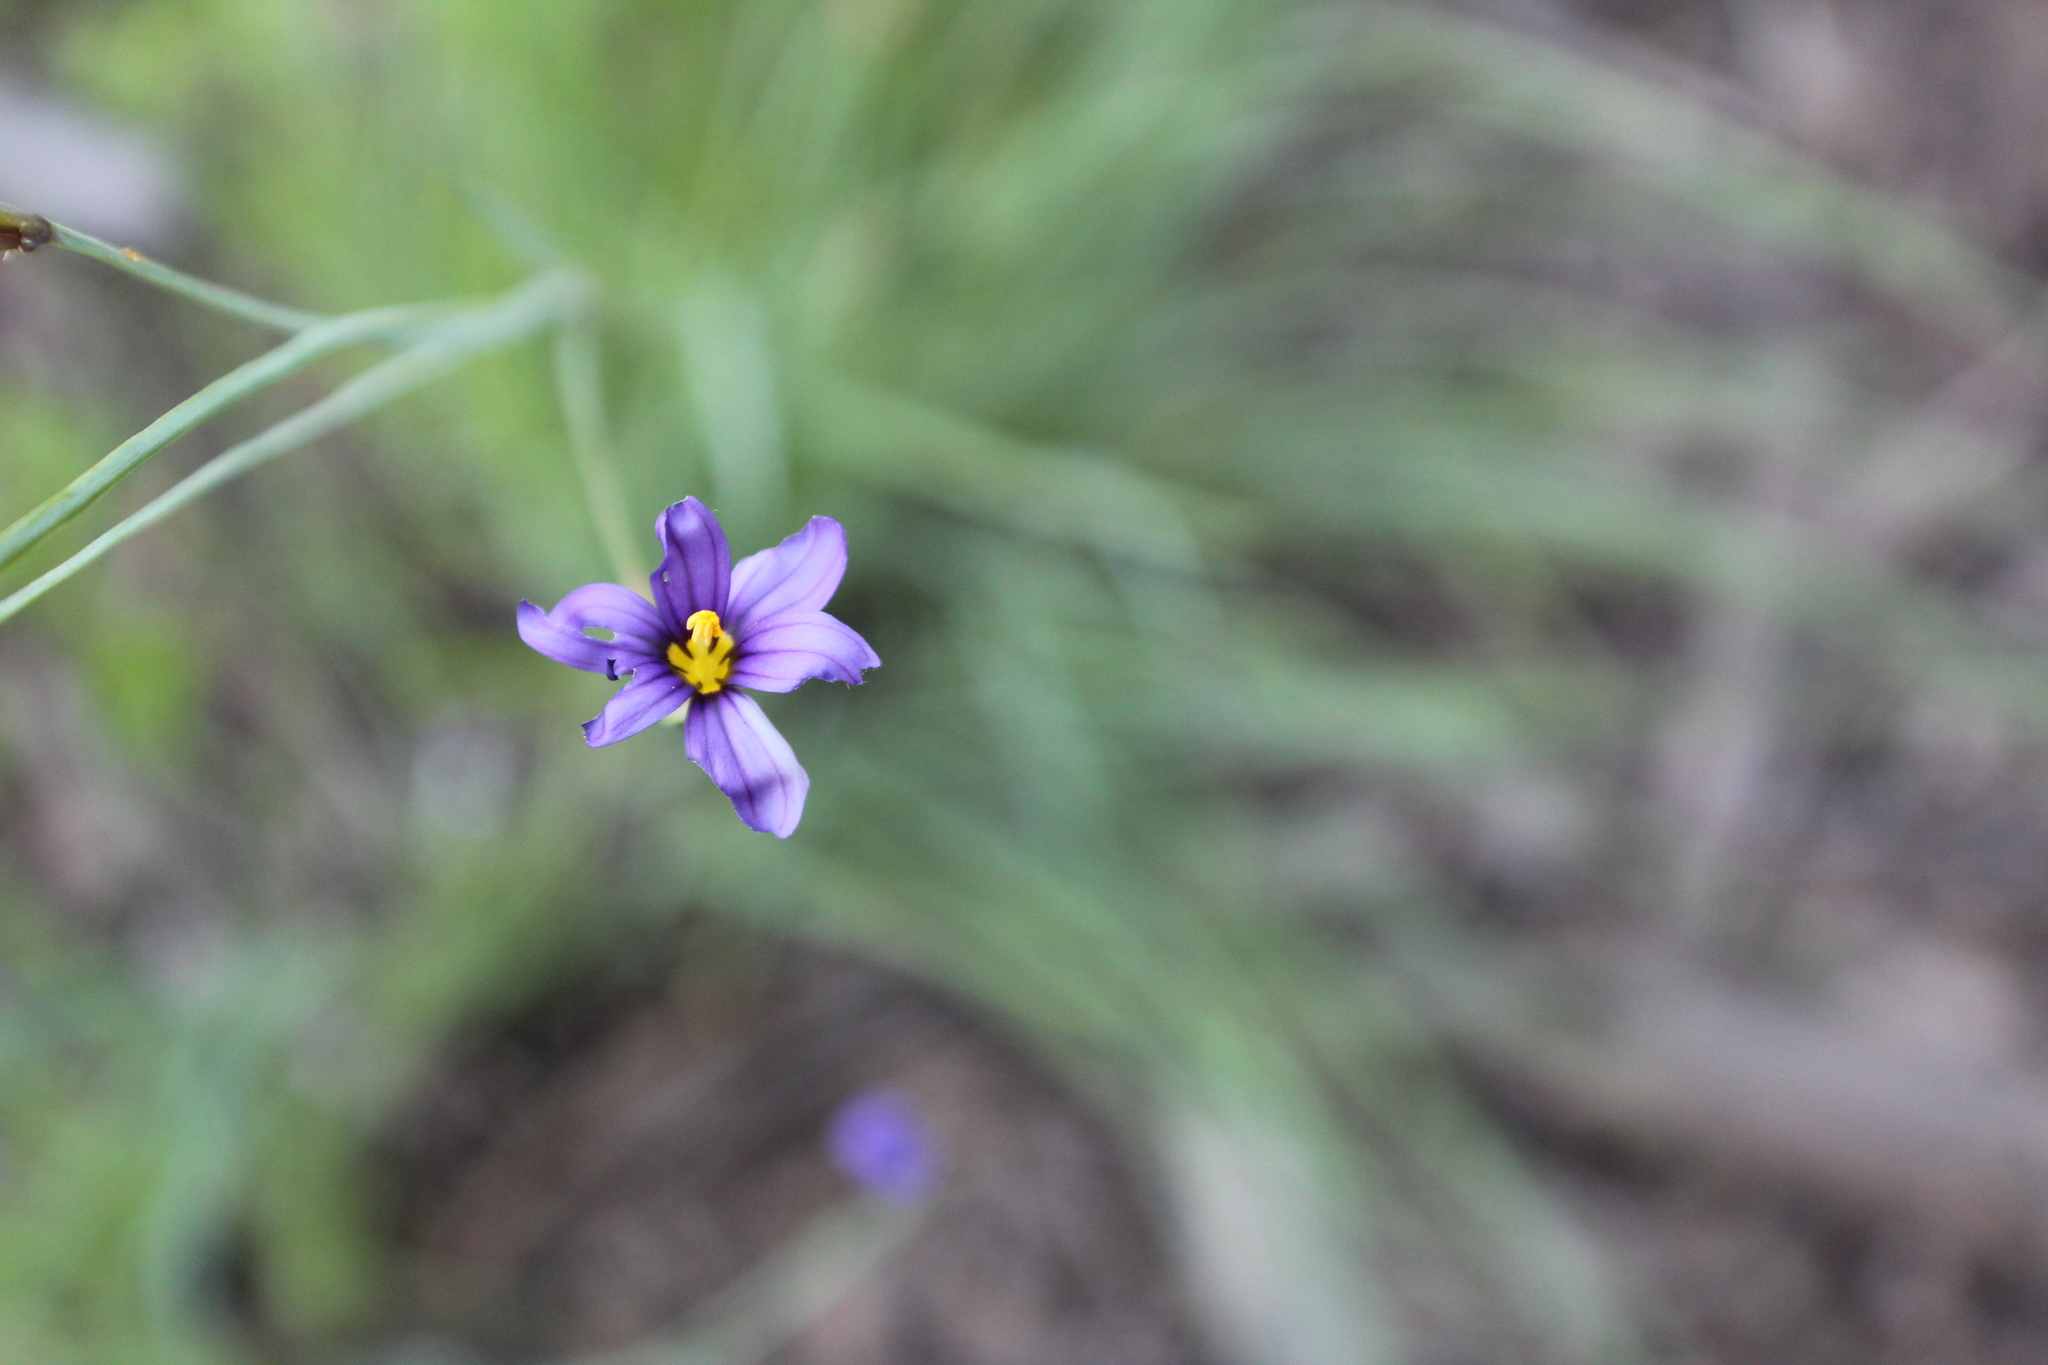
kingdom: Plantae
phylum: Tracheophyta
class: Liliopsida
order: Asparagales
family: Iridaceae
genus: Sisyrinchium
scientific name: Sisyrinchium bellum
